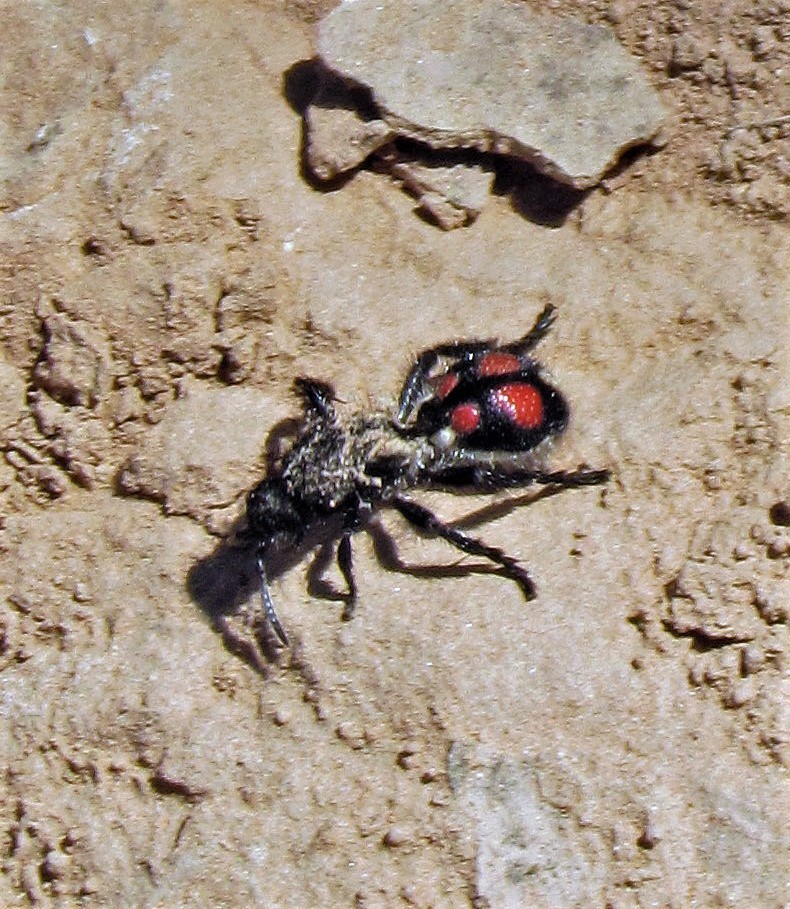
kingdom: Animalia
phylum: Arthropoda
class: Insecta
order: Hymenoptera
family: Mutillidae
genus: Traumatomutilla
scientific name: Traumatomutilla
